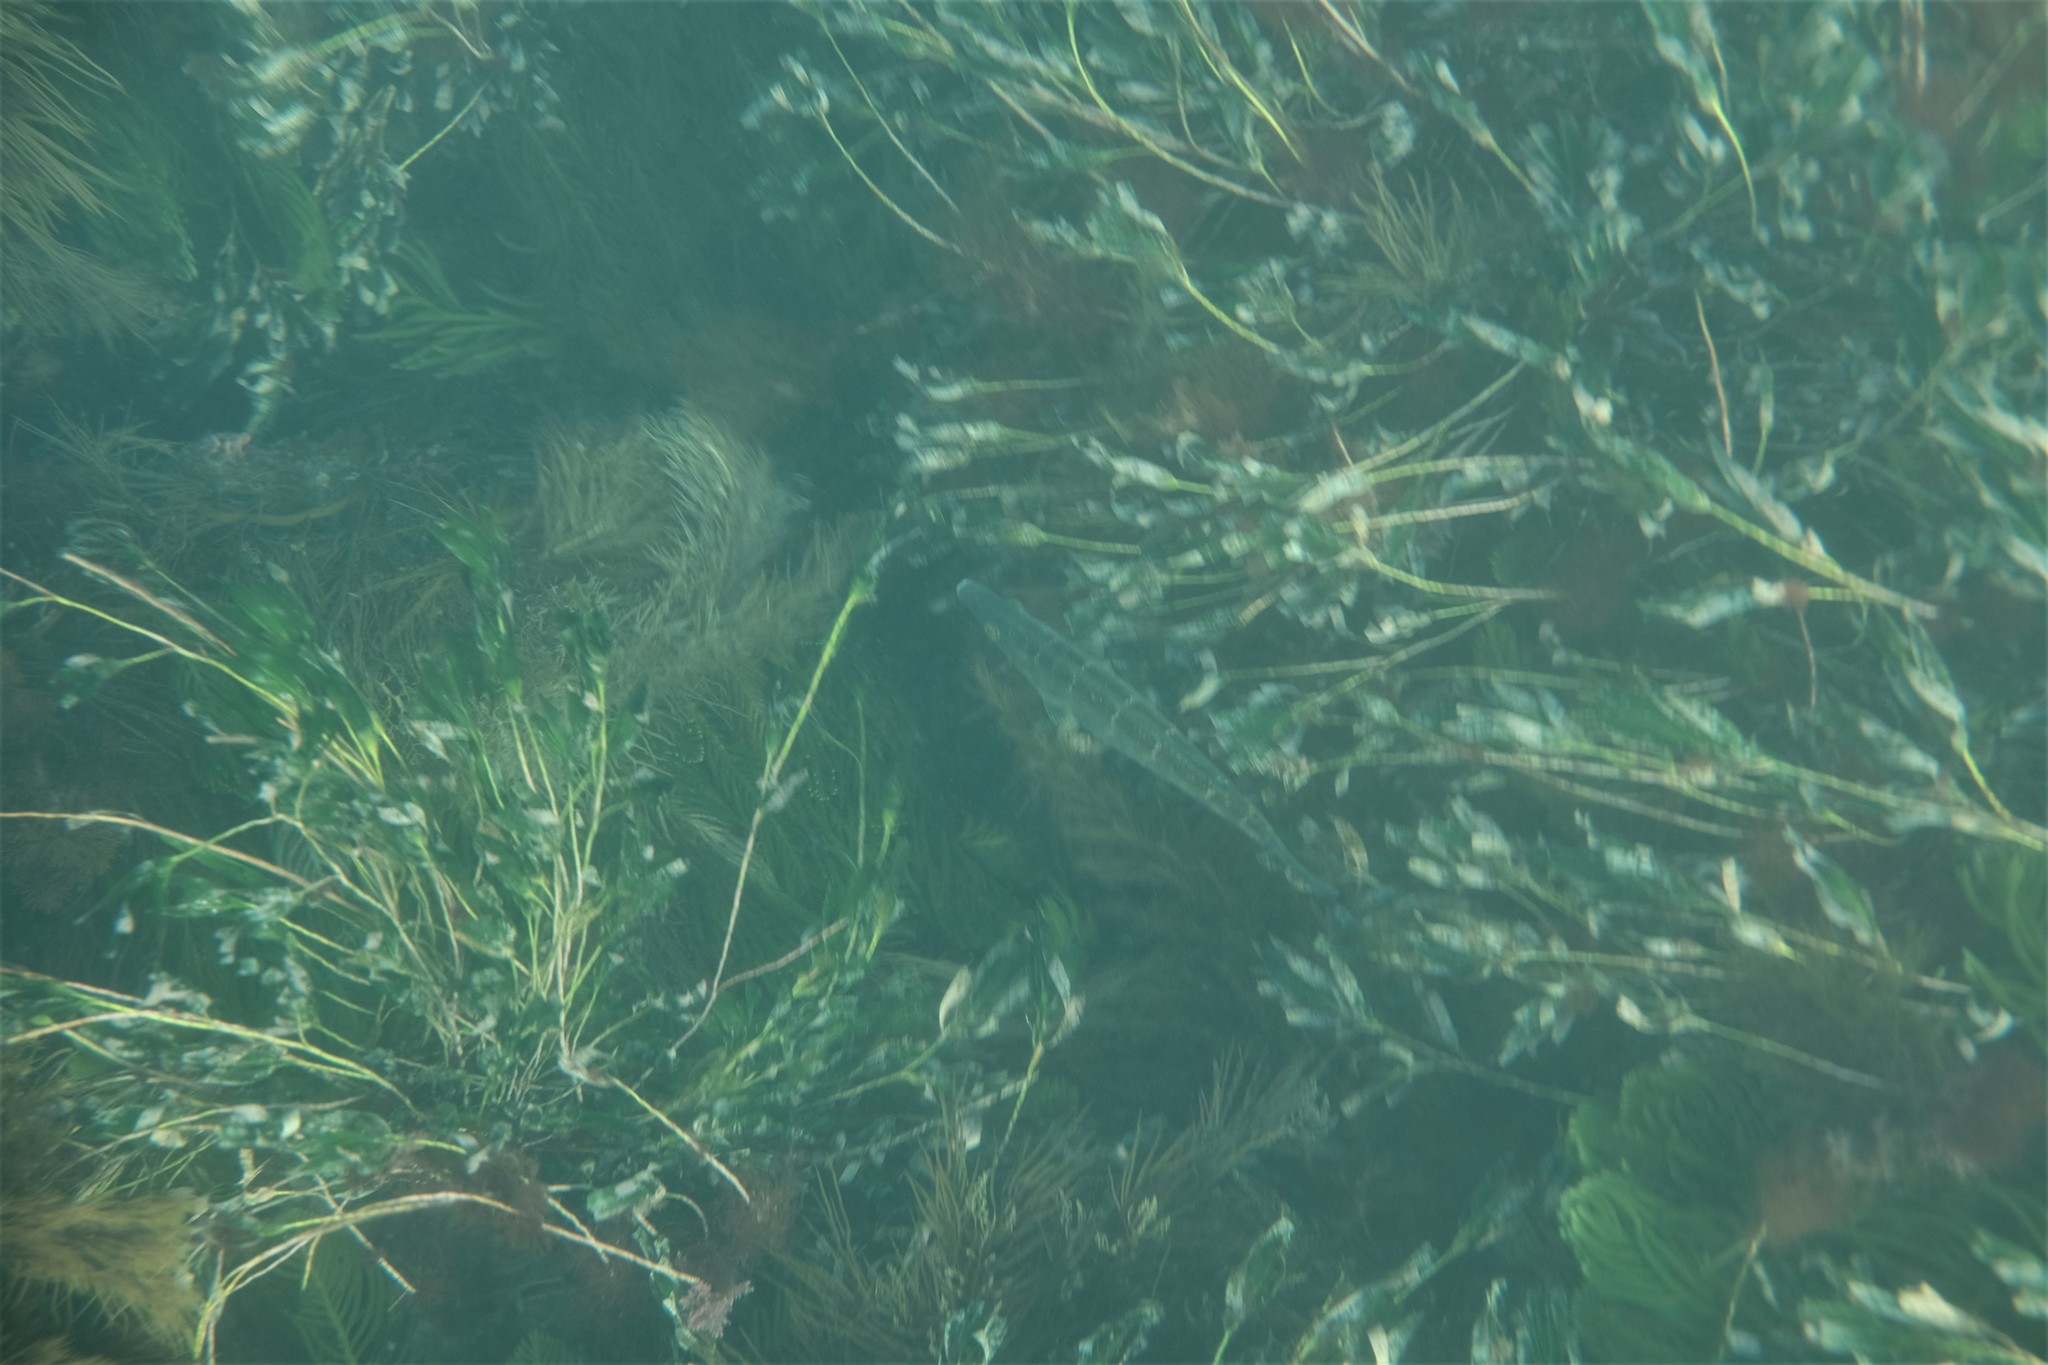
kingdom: Animalia
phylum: Chordata
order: Perciformes
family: Odacidae
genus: Haletta
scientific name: Haletta semifasciata
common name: Blue rock whiting
